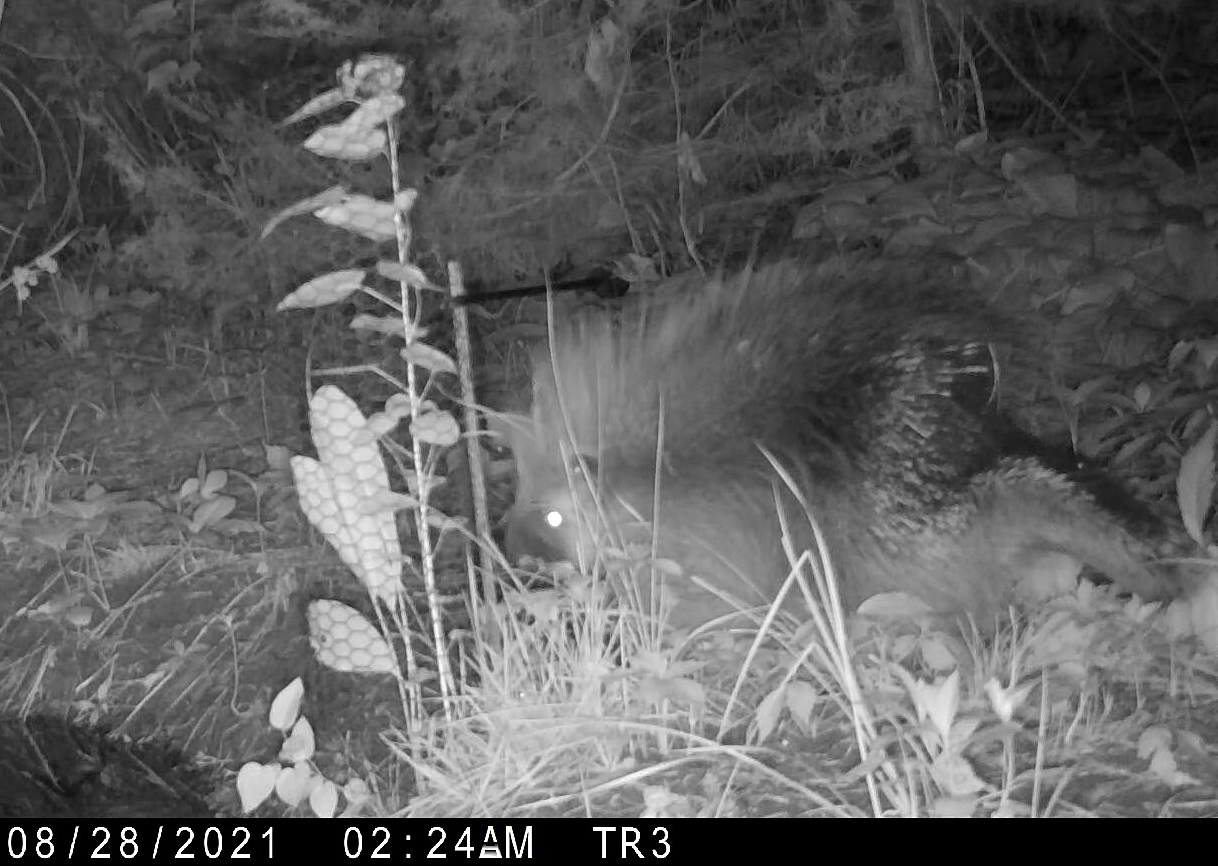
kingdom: Animalia
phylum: Chordata
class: Mammalia
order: Rodentia
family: Erethizontidae
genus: Erethizon
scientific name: Erethizon dorsatus
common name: North american porcupine
